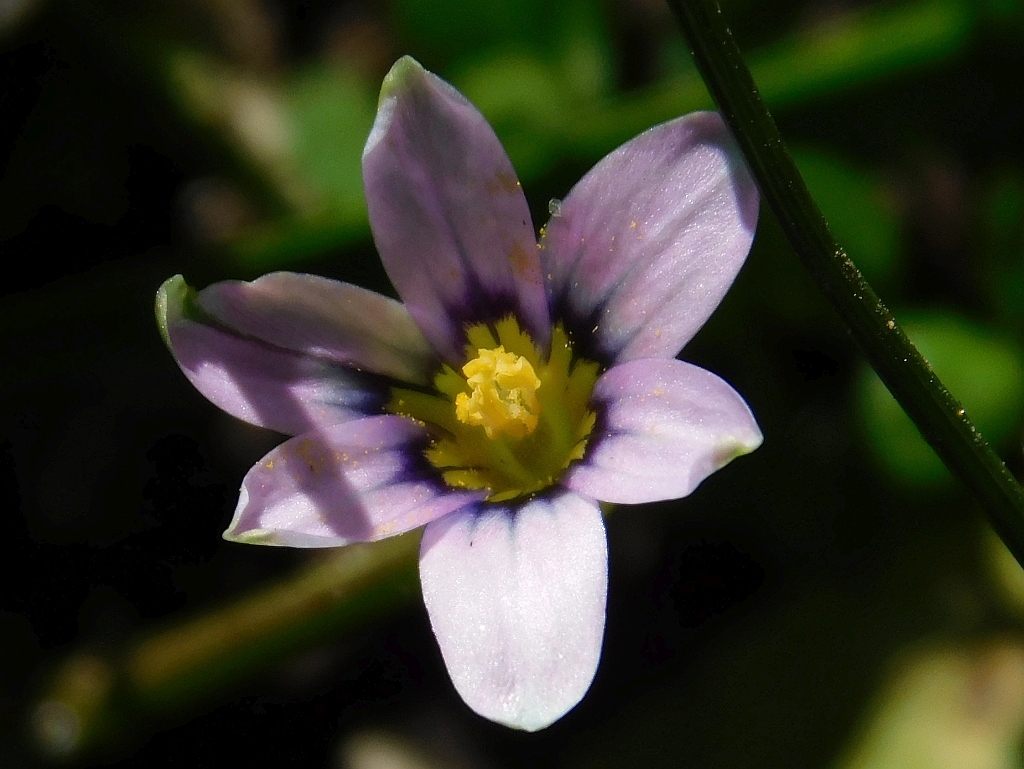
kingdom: Plantae
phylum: Tracheophyta
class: Liliopsida
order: Asparagales
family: Iridaceae
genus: Romulea
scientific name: Romulea minutiflora
